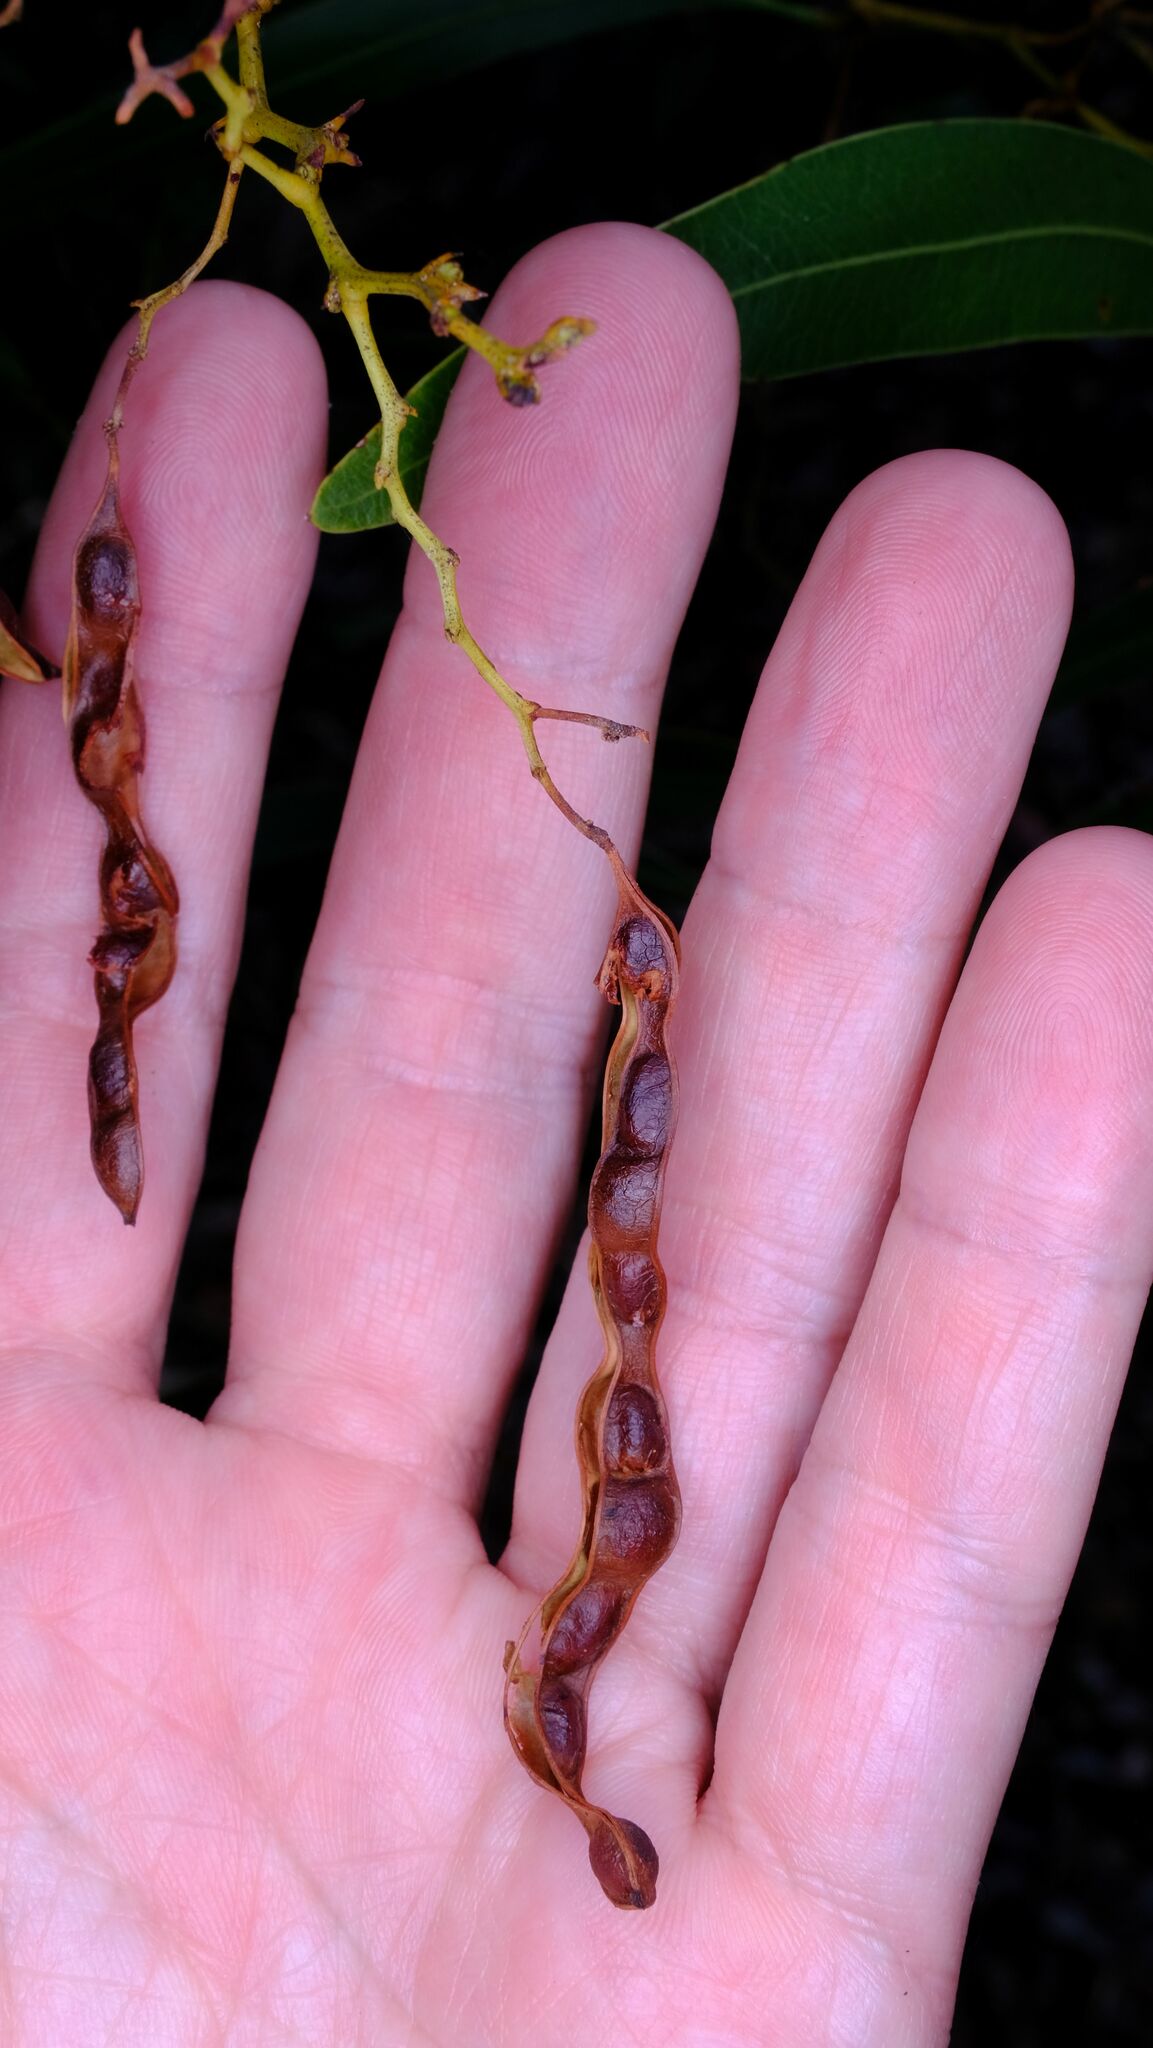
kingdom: Plantae
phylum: Tracheophyta
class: Magnoliopsida
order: Fabales
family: Fabaceae
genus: Acacia
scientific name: Acacia macradenia
